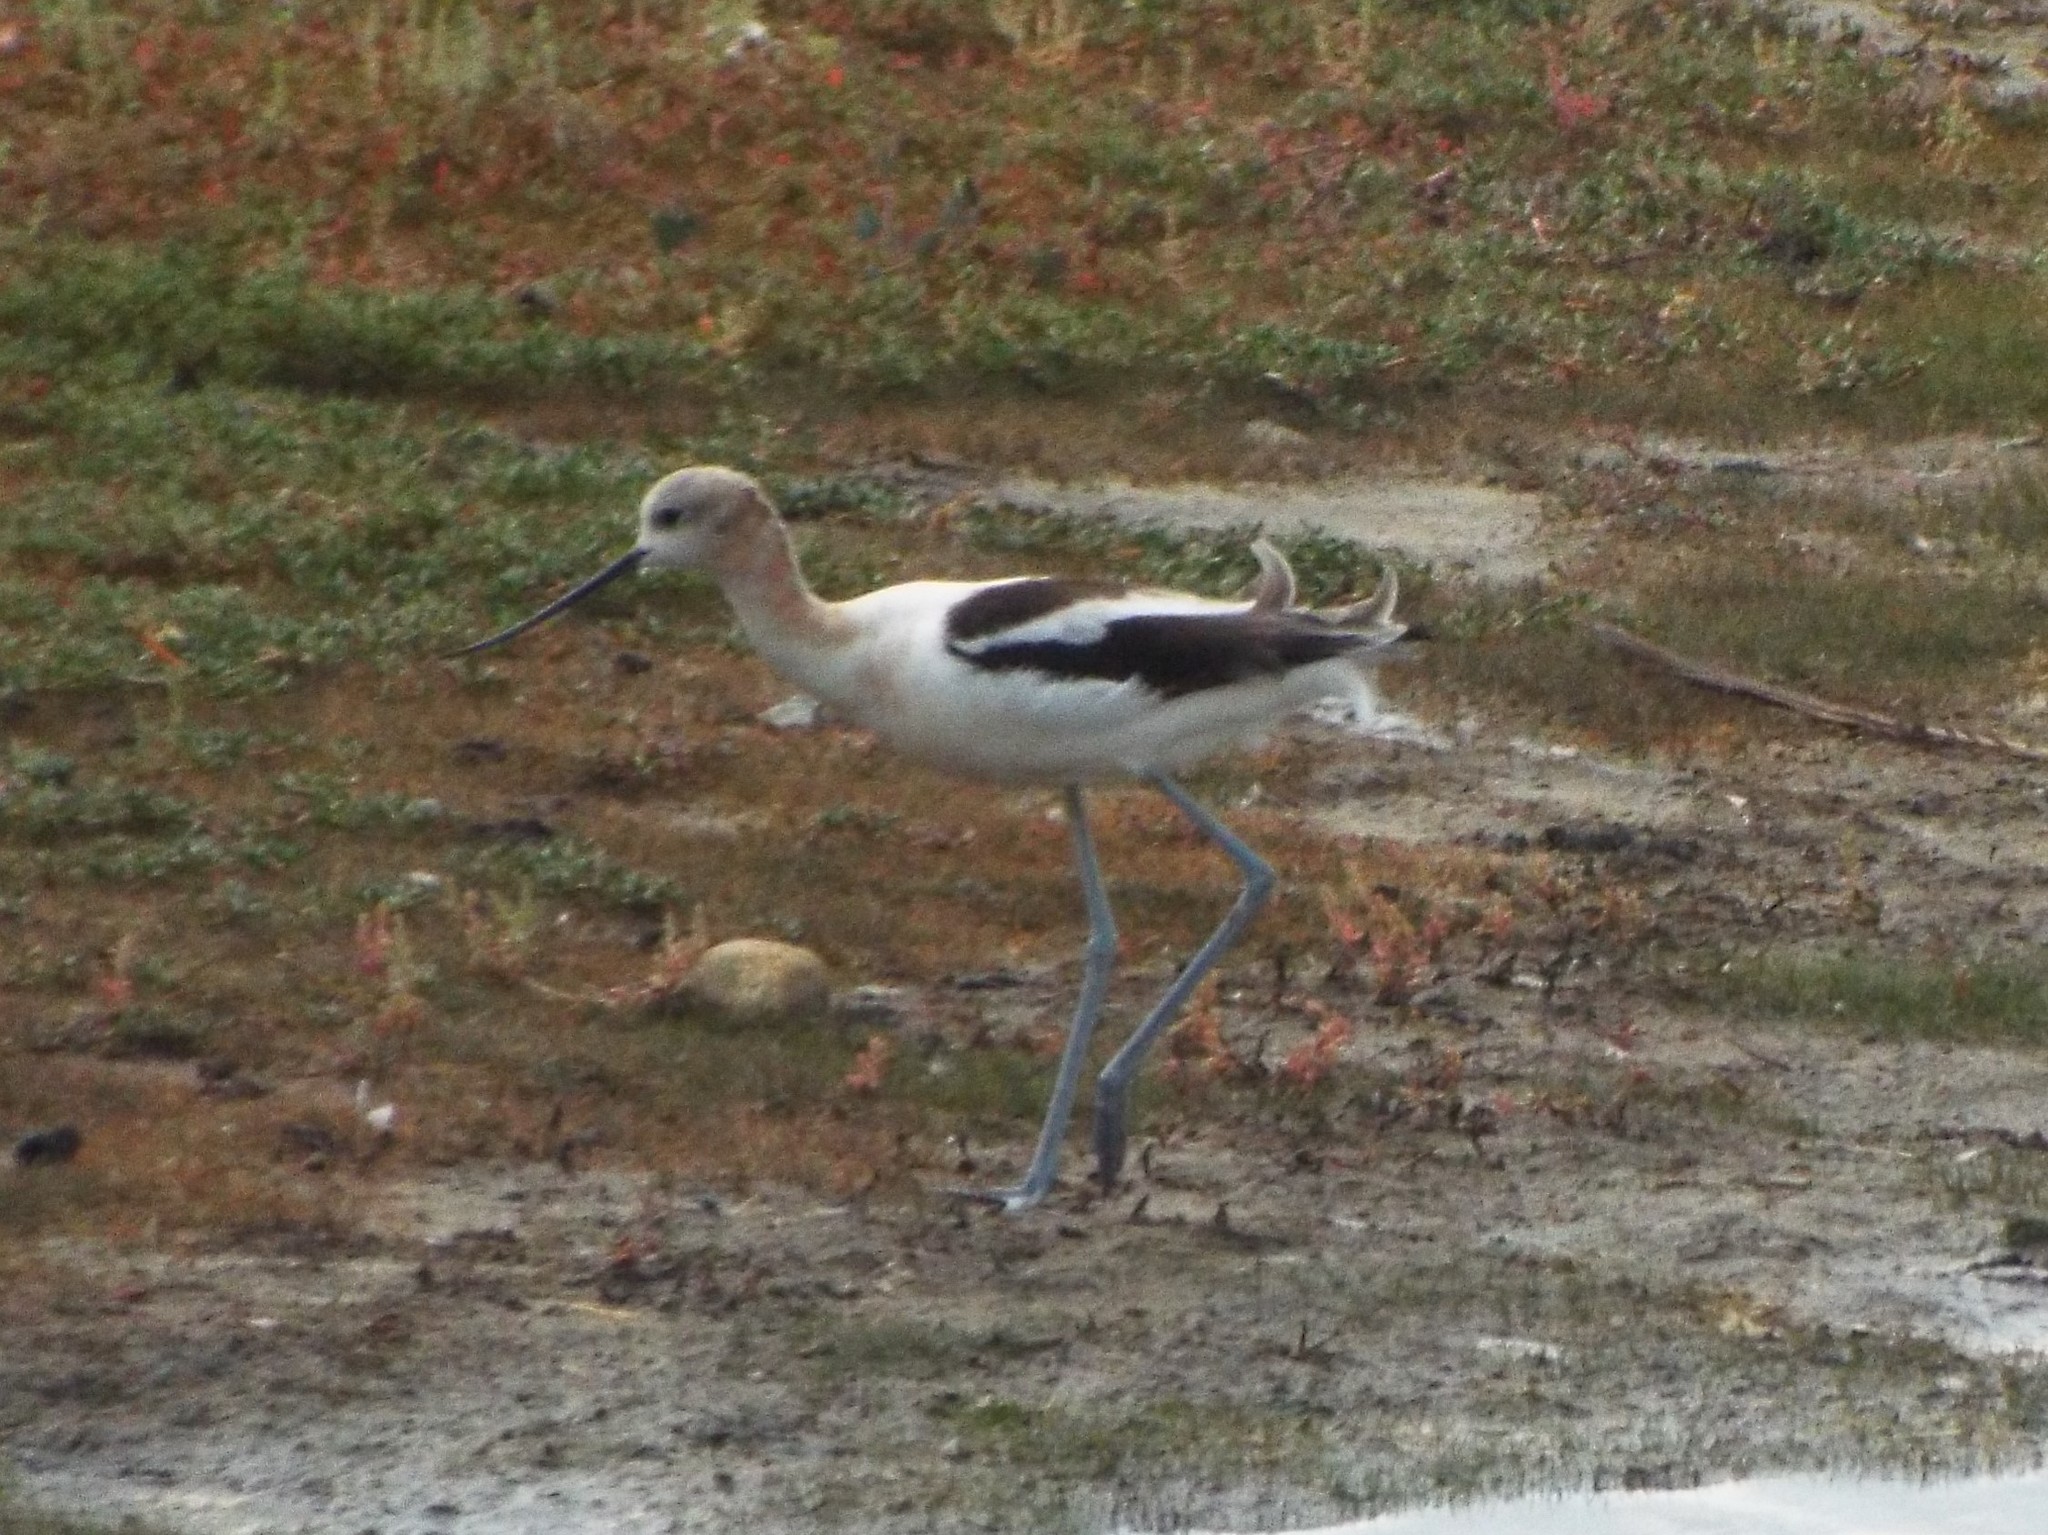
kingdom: Animalia
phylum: Chordata
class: Aves
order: Charadriiformes
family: Recurvirostridae
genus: Recurvirostra
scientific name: Recurvirostra americana
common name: American avocet
